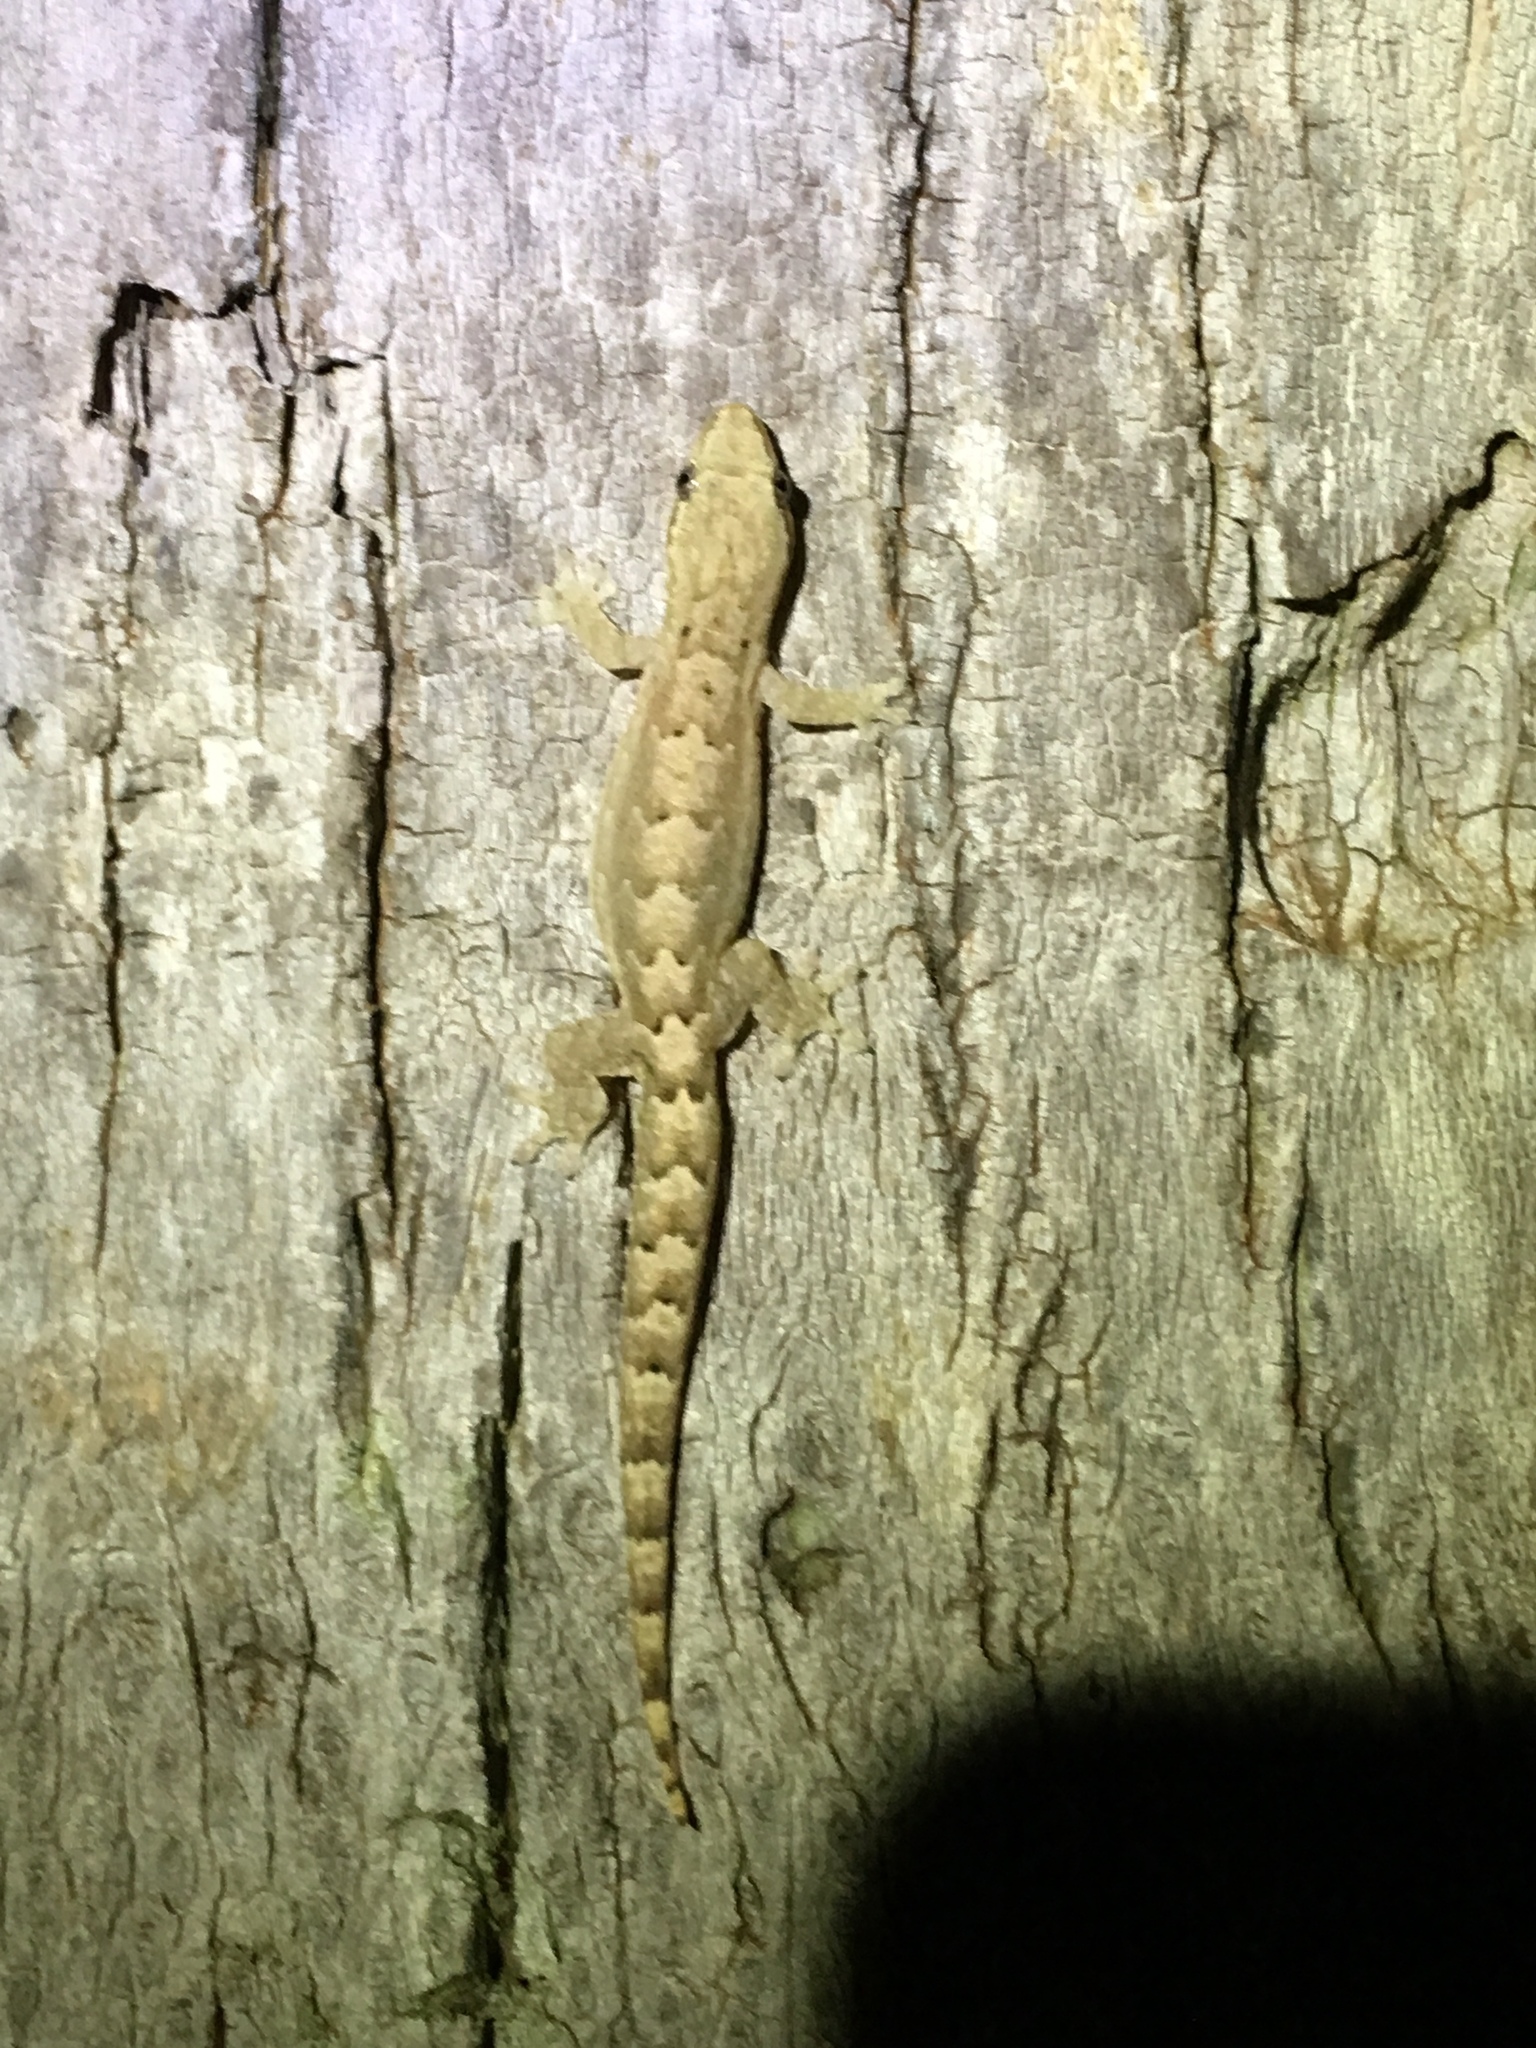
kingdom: Animalia
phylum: Chordata
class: Squamata
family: Gekkonidae
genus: Lepidodactylus
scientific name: Lepidodactylus lugubris
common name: Mourning gecko
